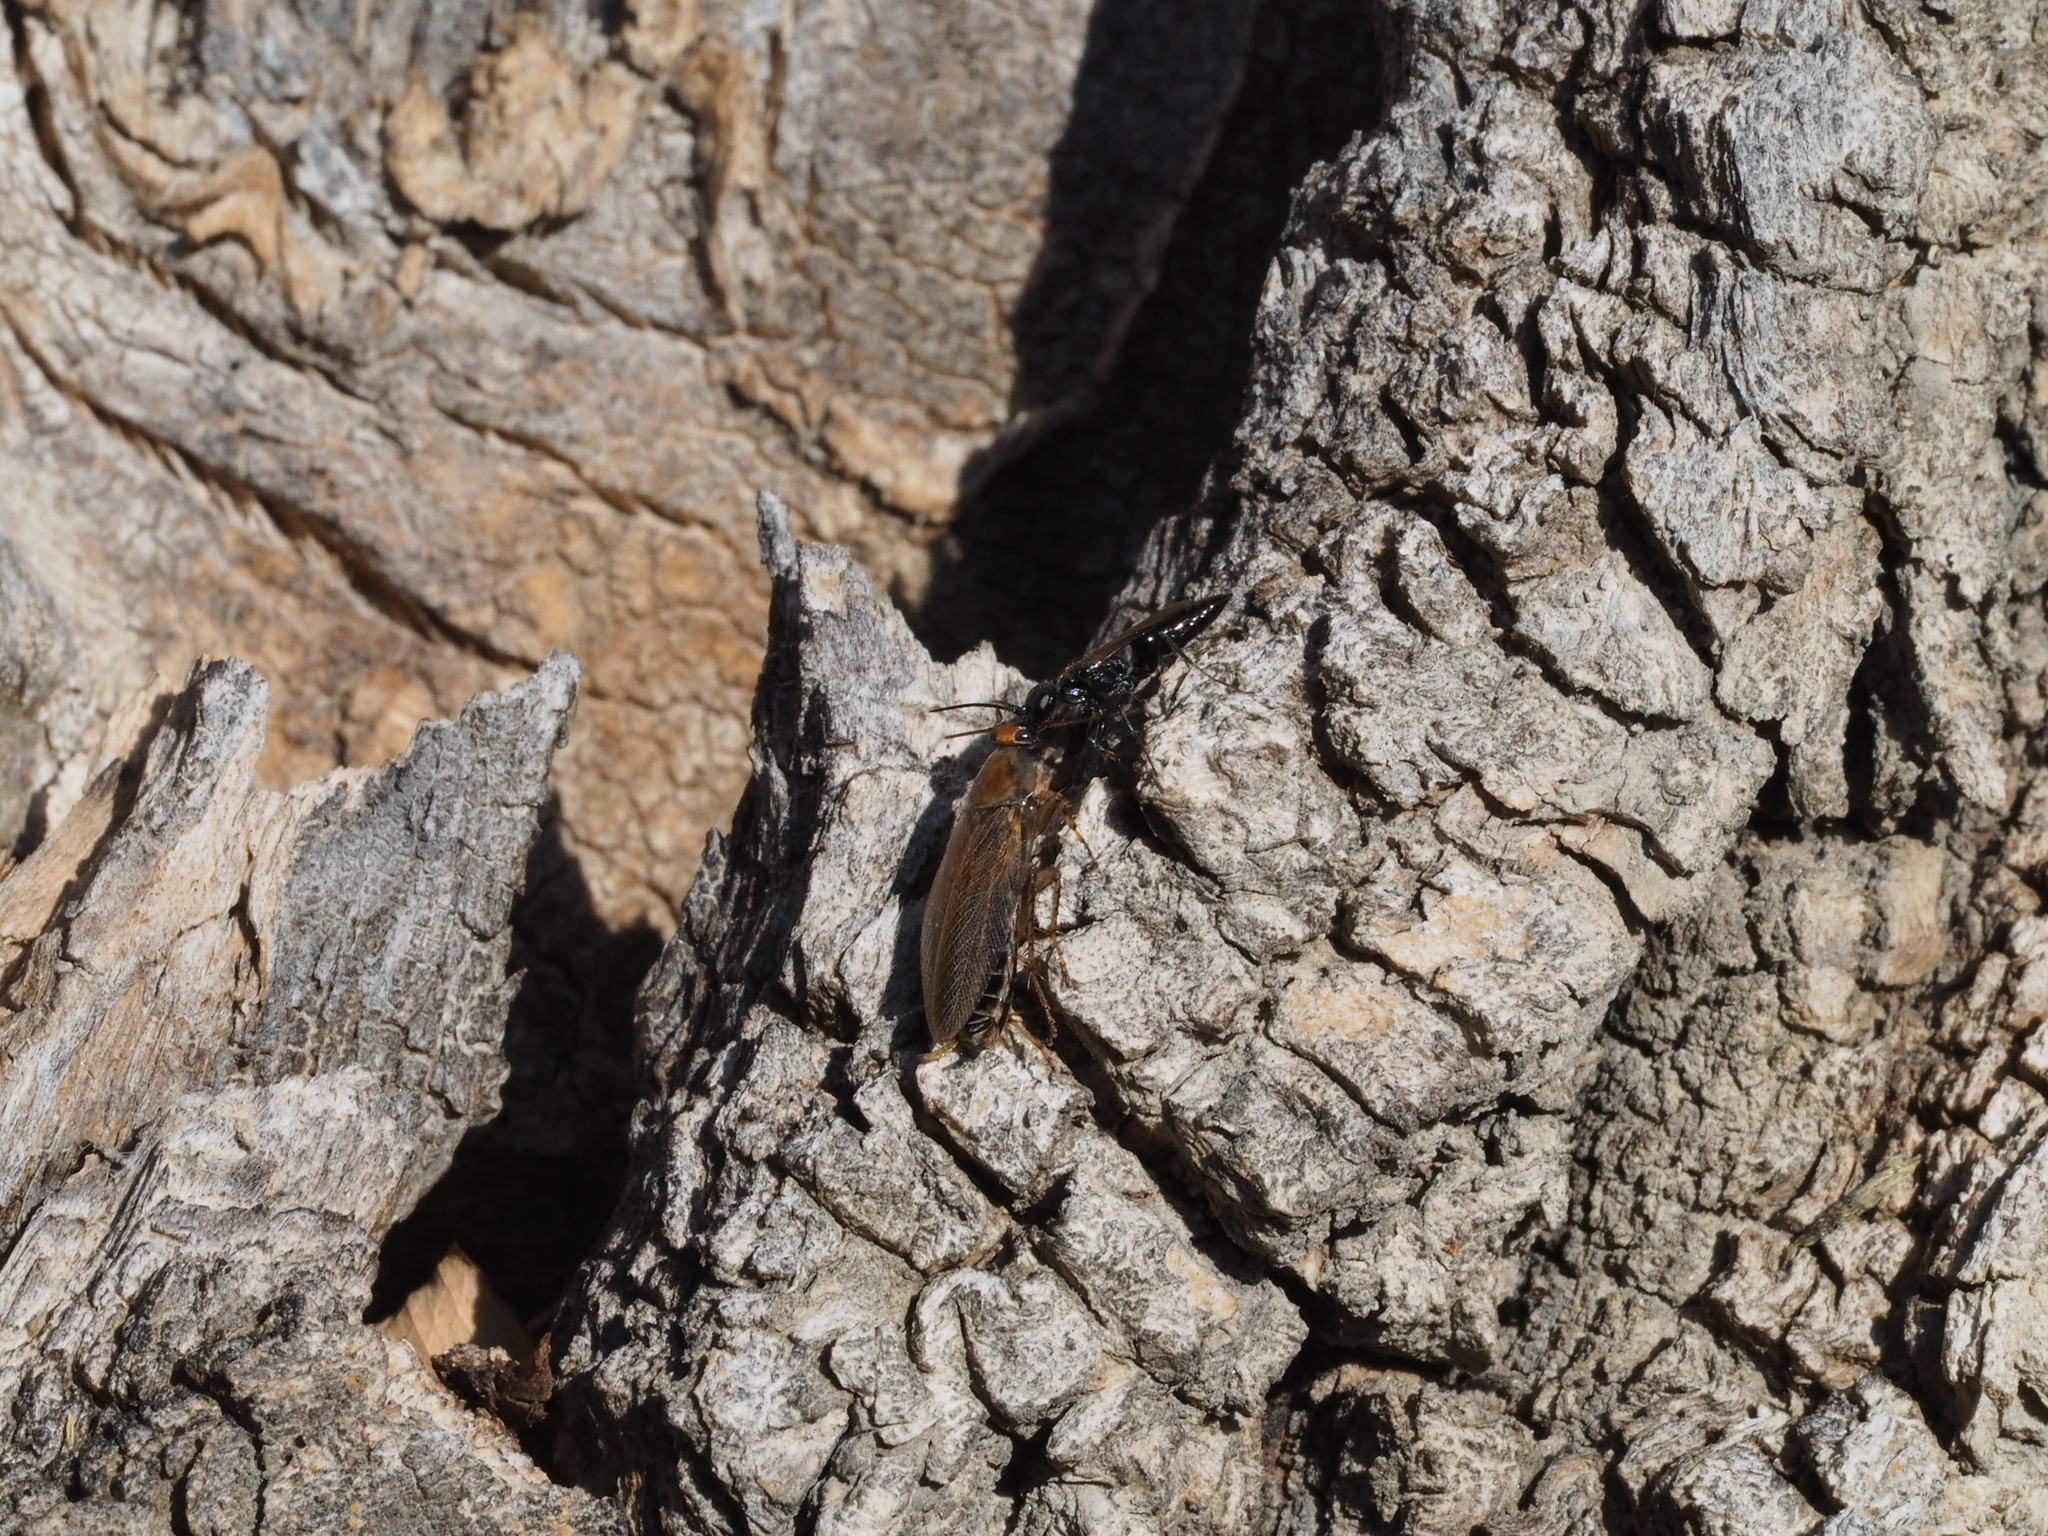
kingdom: Animalia
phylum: Arthropoda
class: Insecta
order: Hymenoptera
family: Ampulicidae
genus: Dolichurus
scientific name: Dolichurus corniculus
